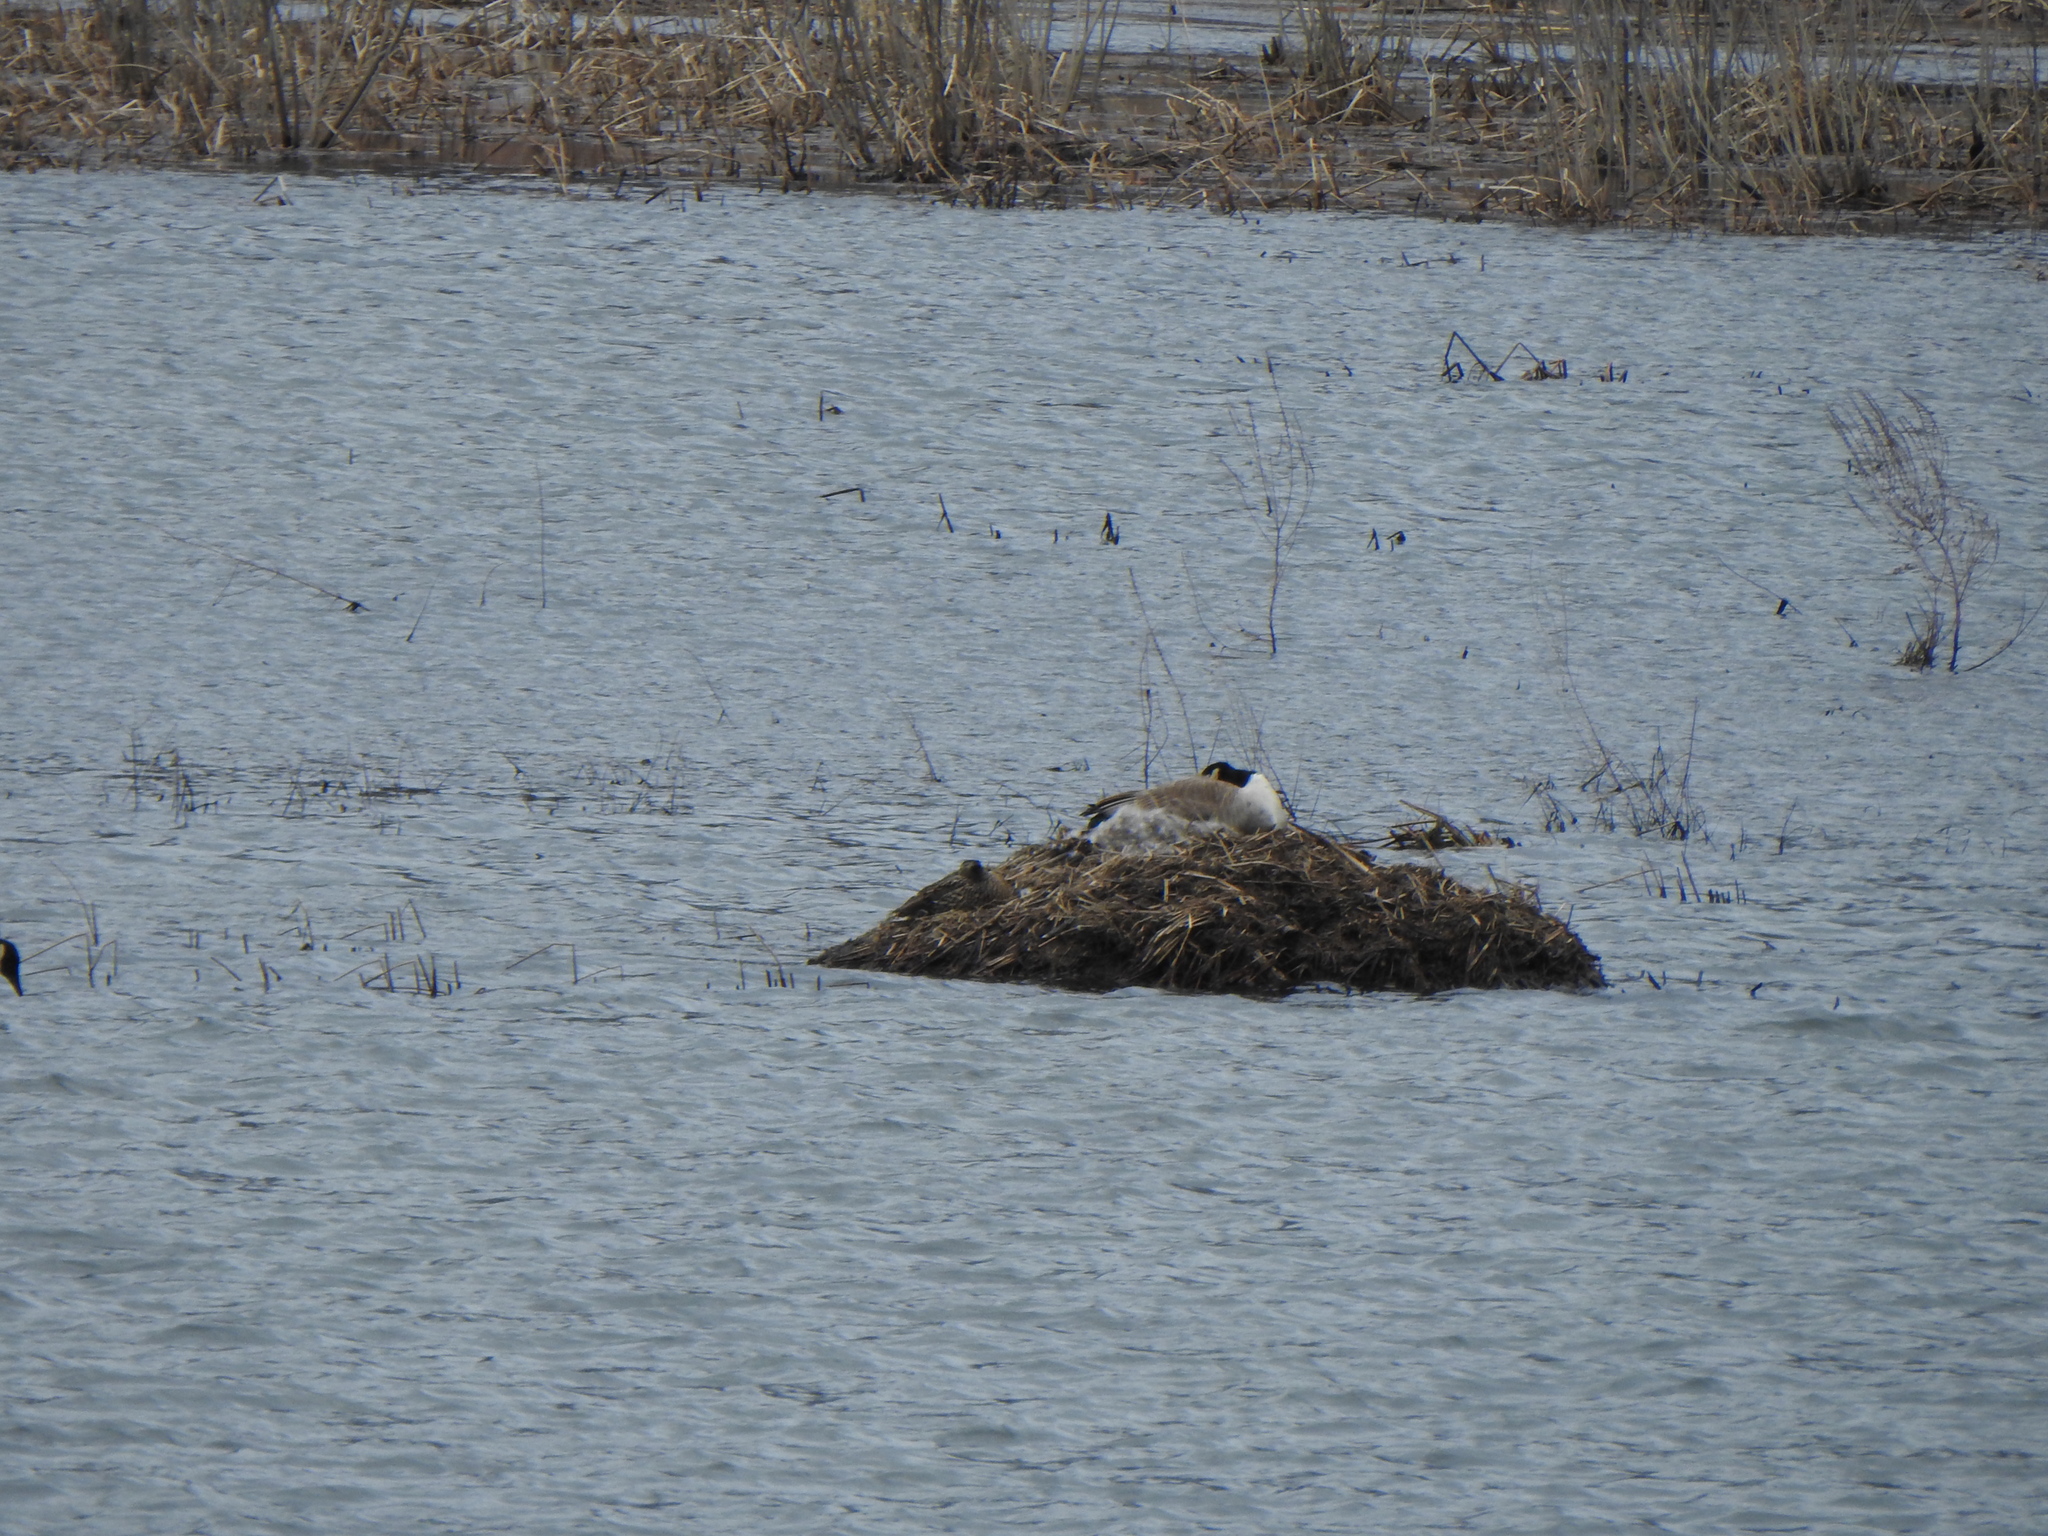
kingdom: Animalia
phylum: Chordata
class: Aves
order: Anseriformes
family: Anatidae
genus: Branta
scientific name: Branta canadensis
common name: Canada goose
